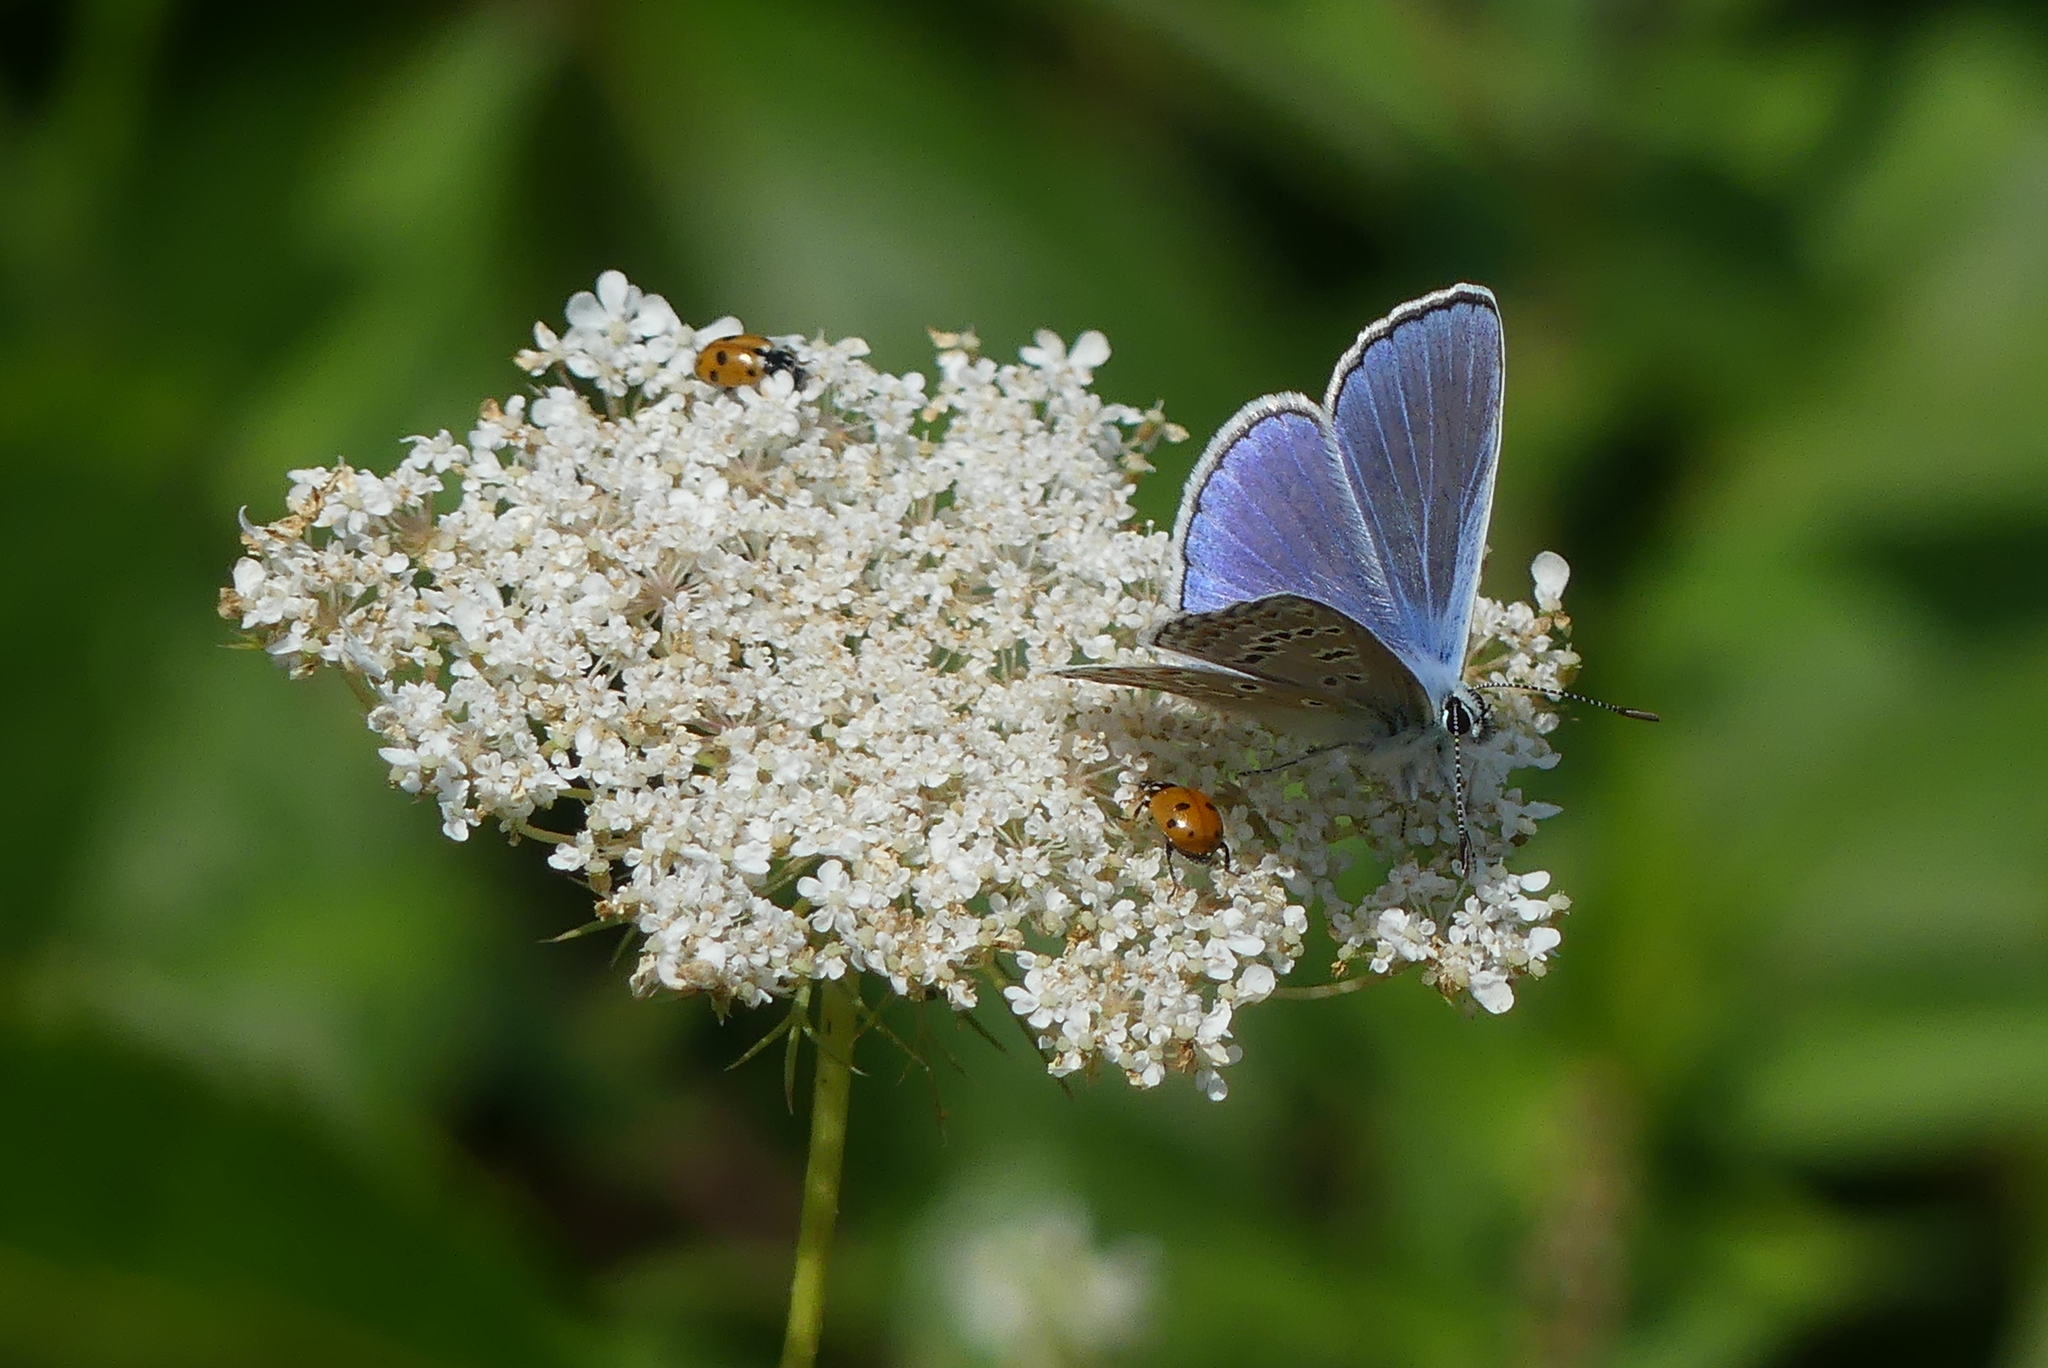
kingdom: Animalia
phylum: Arthropoda
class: Insecta
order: Lepidoptera
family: Lycaenidae
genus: Polyommatus
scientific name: Polyommatus icarus
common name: Common blue
